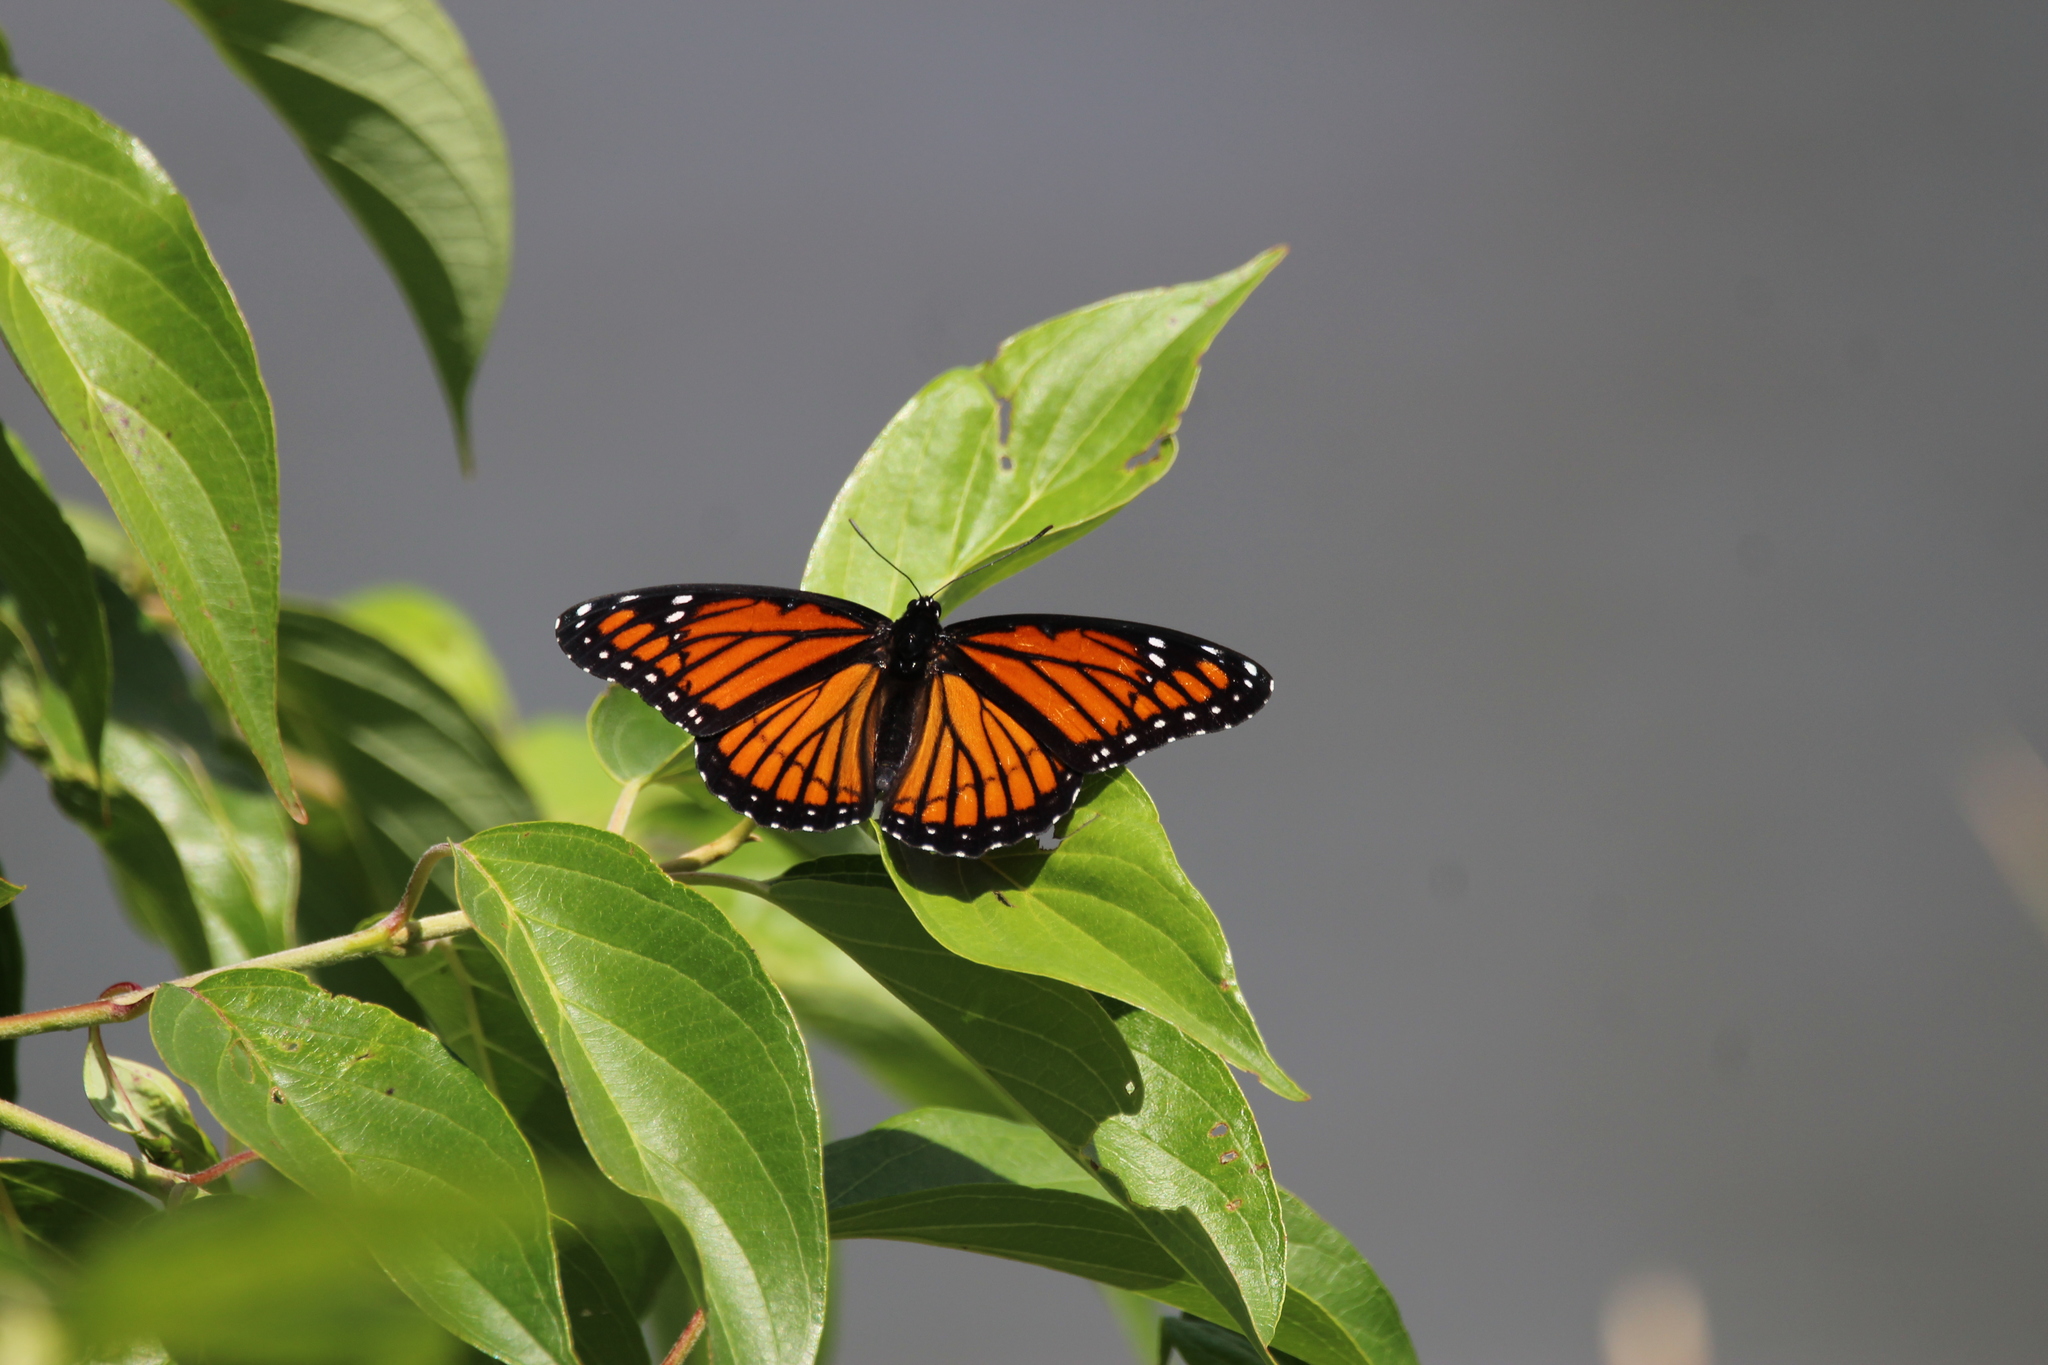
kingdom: Animalia
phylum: Arthropoda
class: Insecta
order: Lepidoptera
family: Nymphalidae
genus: Limenitis
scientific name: Limenitis archippus
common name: Viceroy
